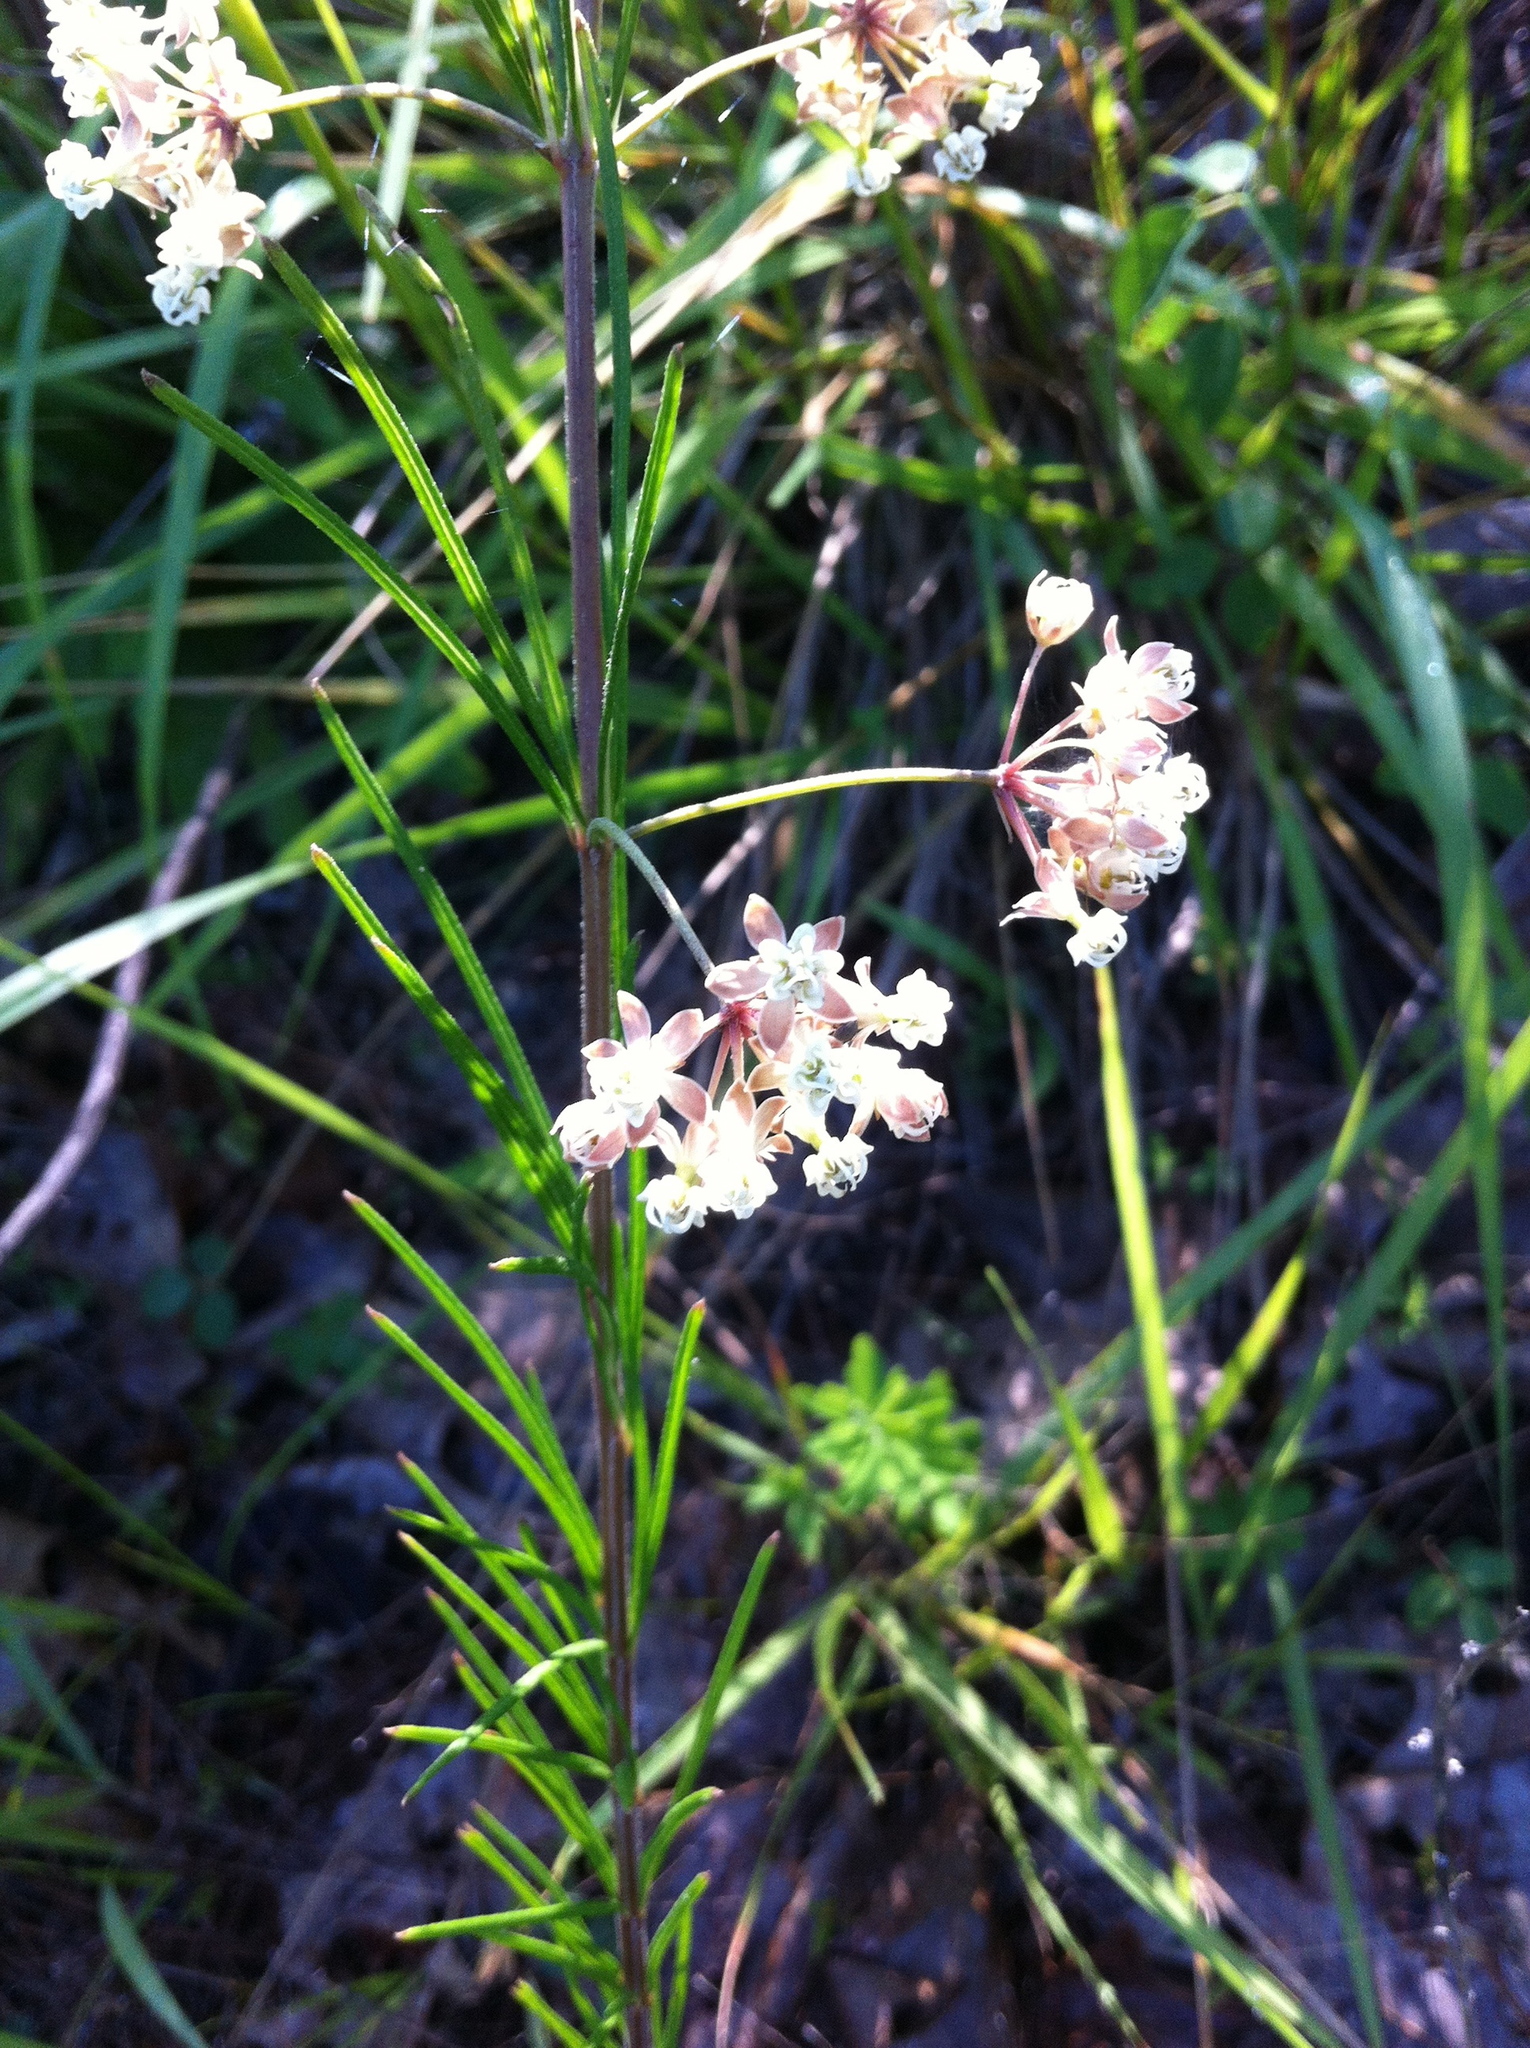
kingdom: Plantae
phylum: Tracheophyta
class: Magnoliopsida
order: Gentianales
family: Apocynaceae
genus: Asclepias
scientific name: Asclepias verticillata
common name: Eastern whorled milkweed
